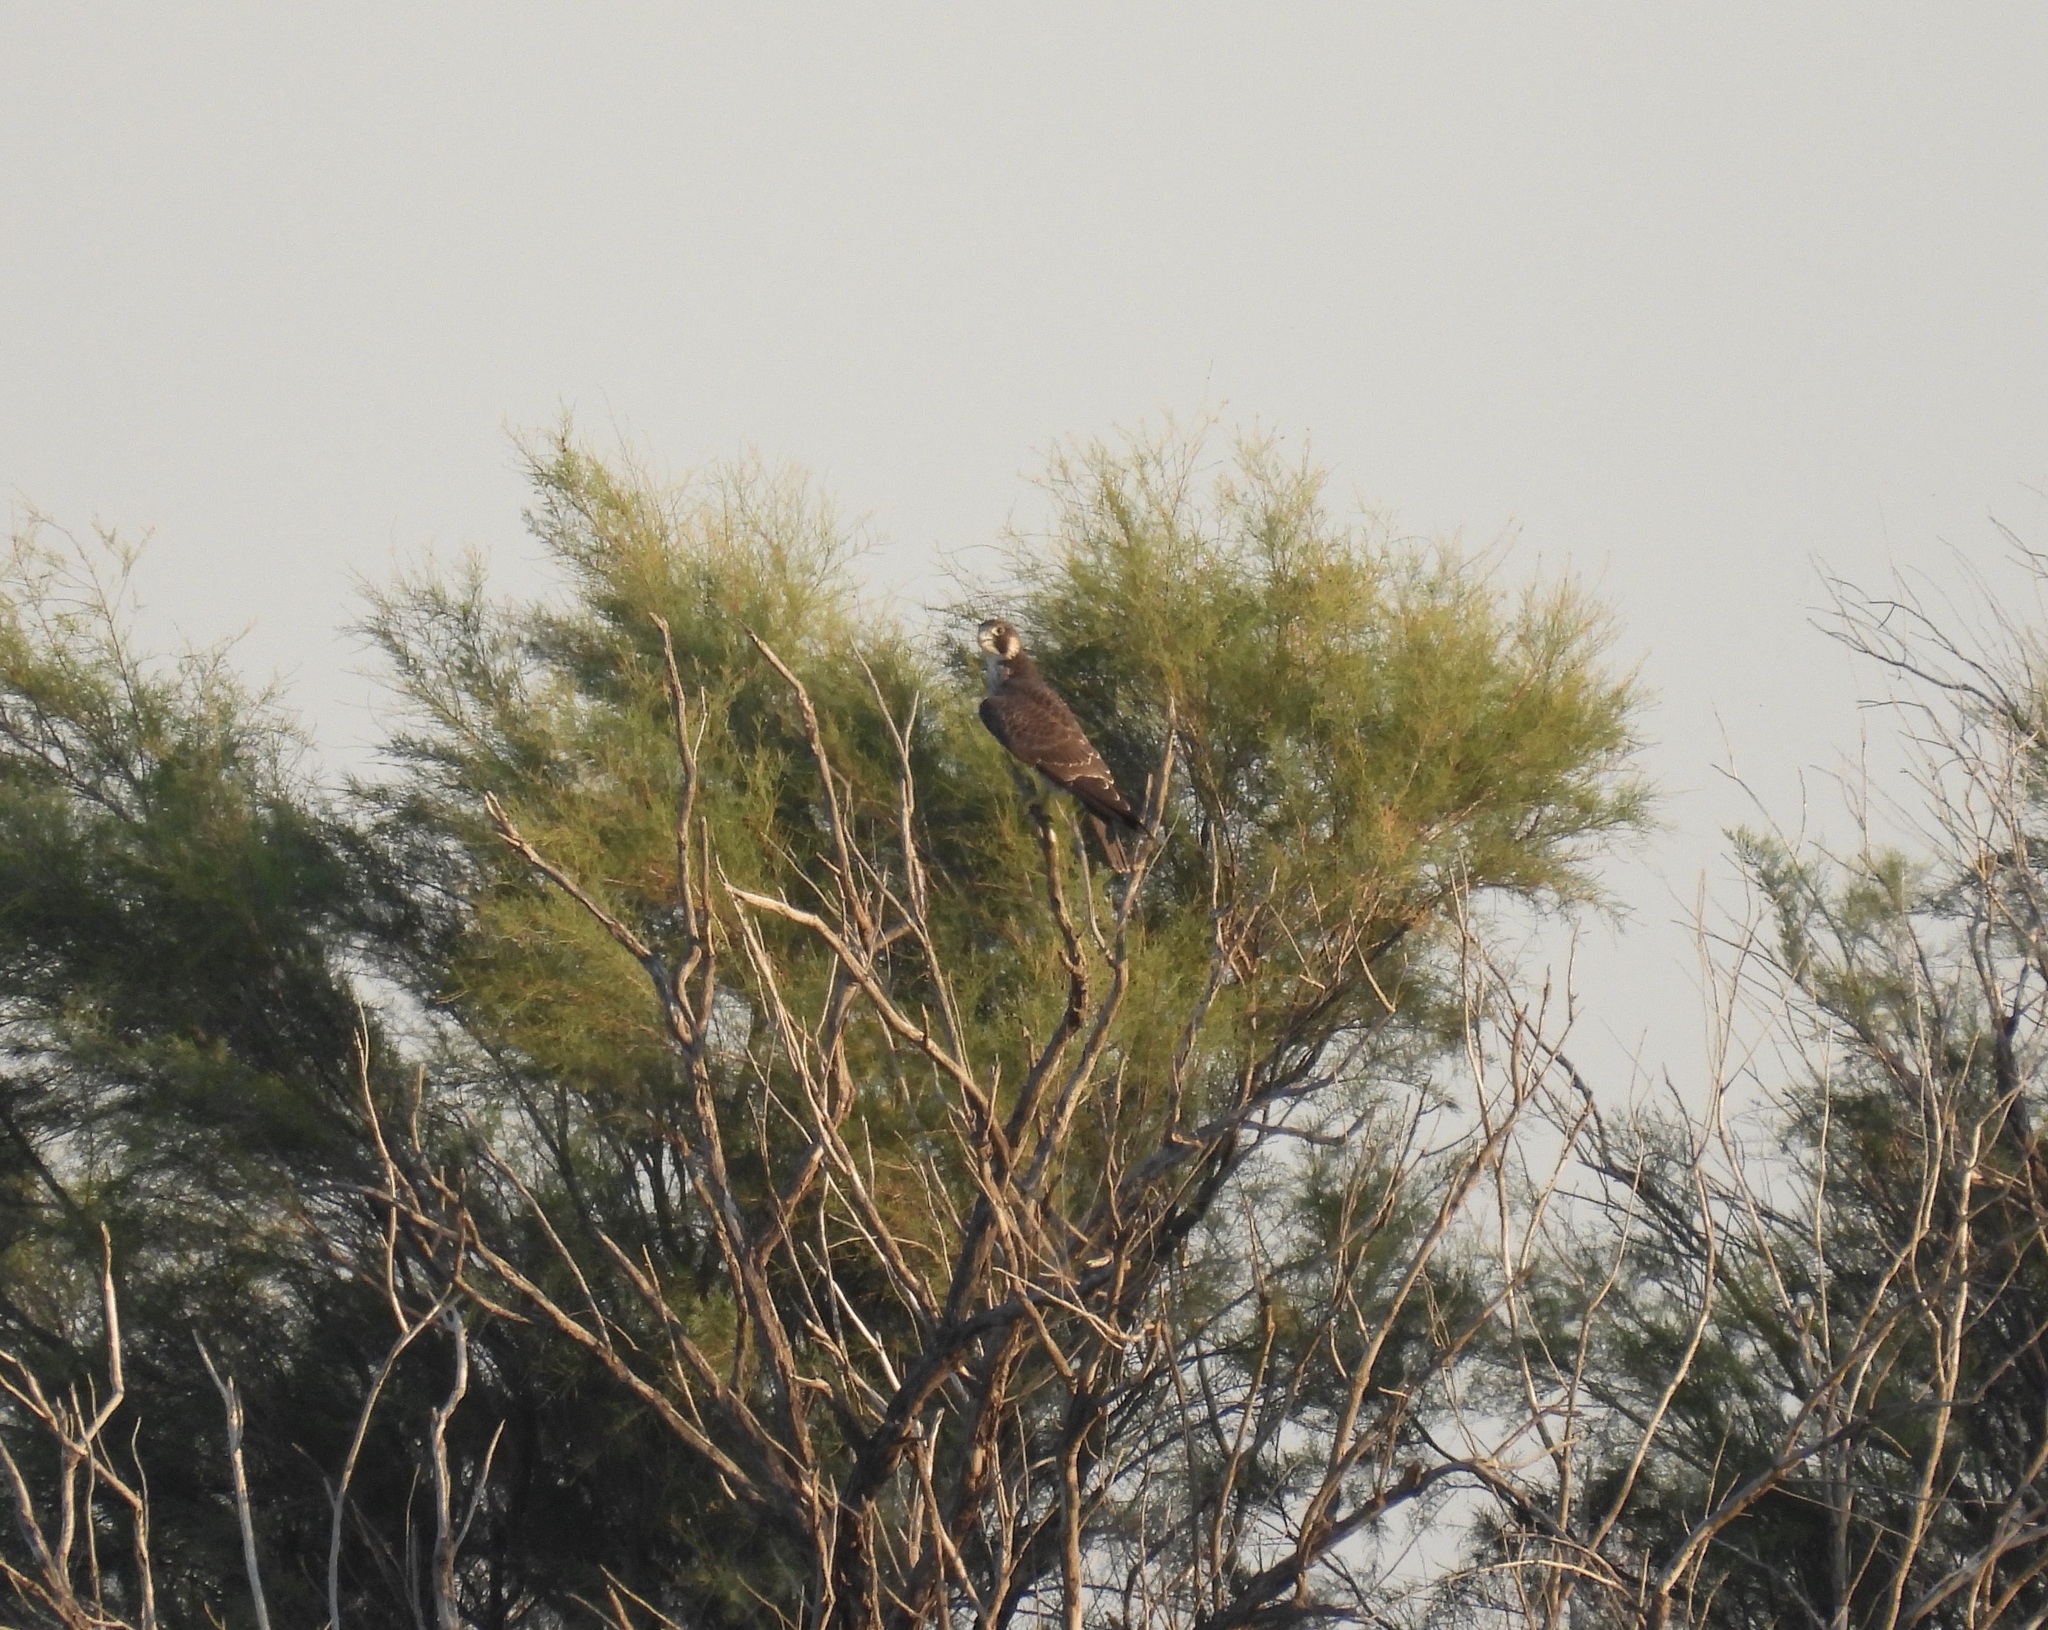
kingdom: Animalia
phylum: Chordata
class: Aves
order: Falconiformes
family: Falconidae
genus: Falco
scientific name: Falco peregrinus
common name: Peregrine falcon
